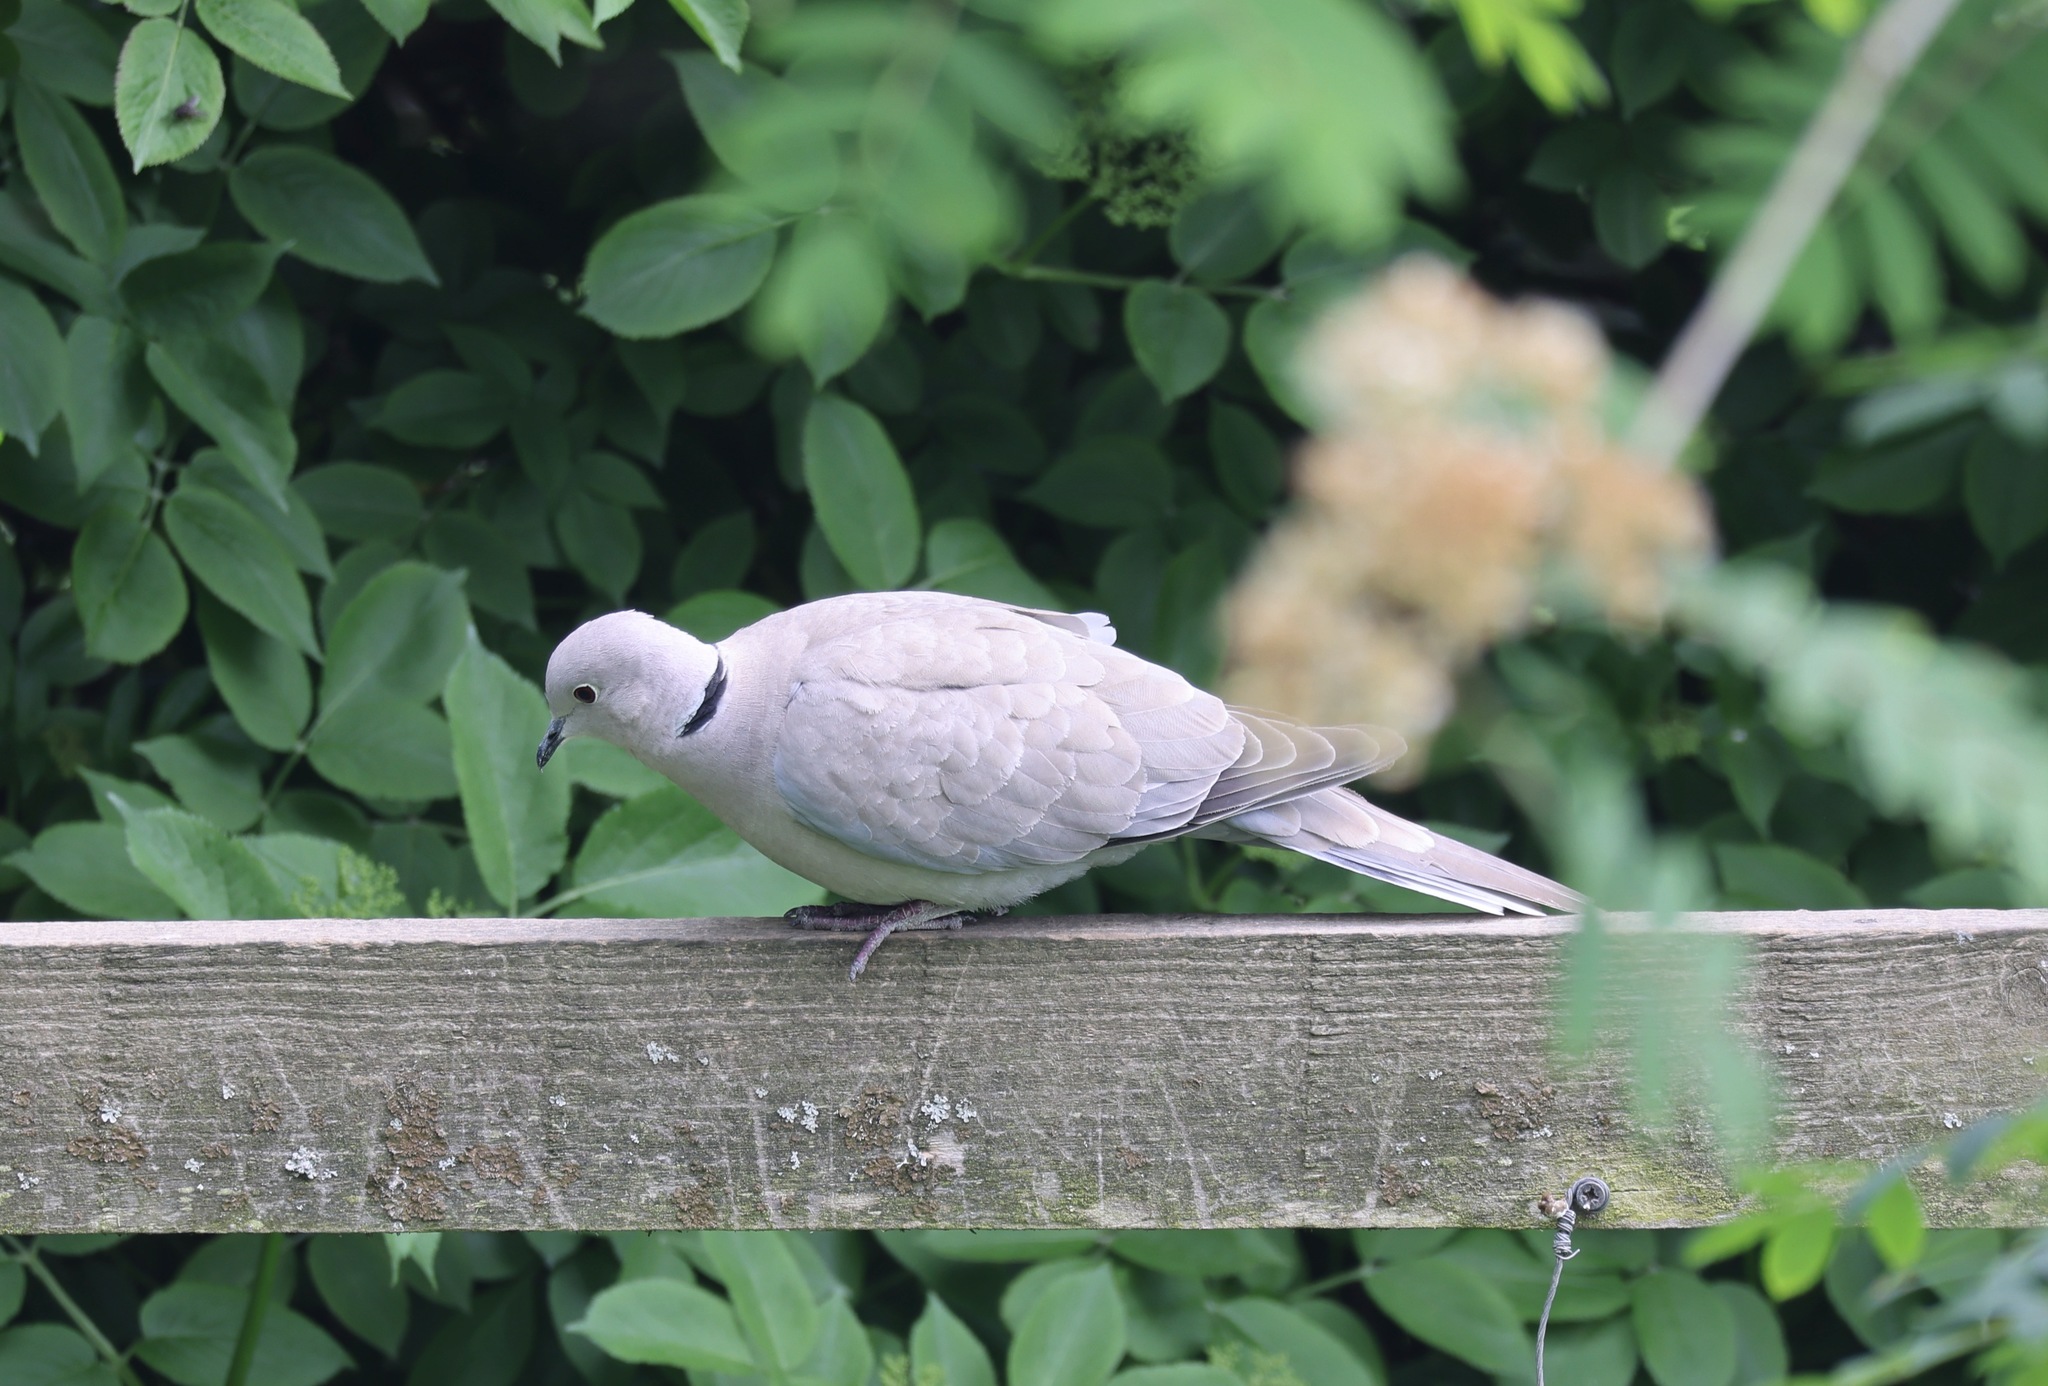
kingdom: Animalia
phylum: Chordata
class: Aves
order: Columbiformes
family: Columbidae
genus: Streptopelia
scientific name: Streptopelia decaocto
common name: Eurasian collared dove
